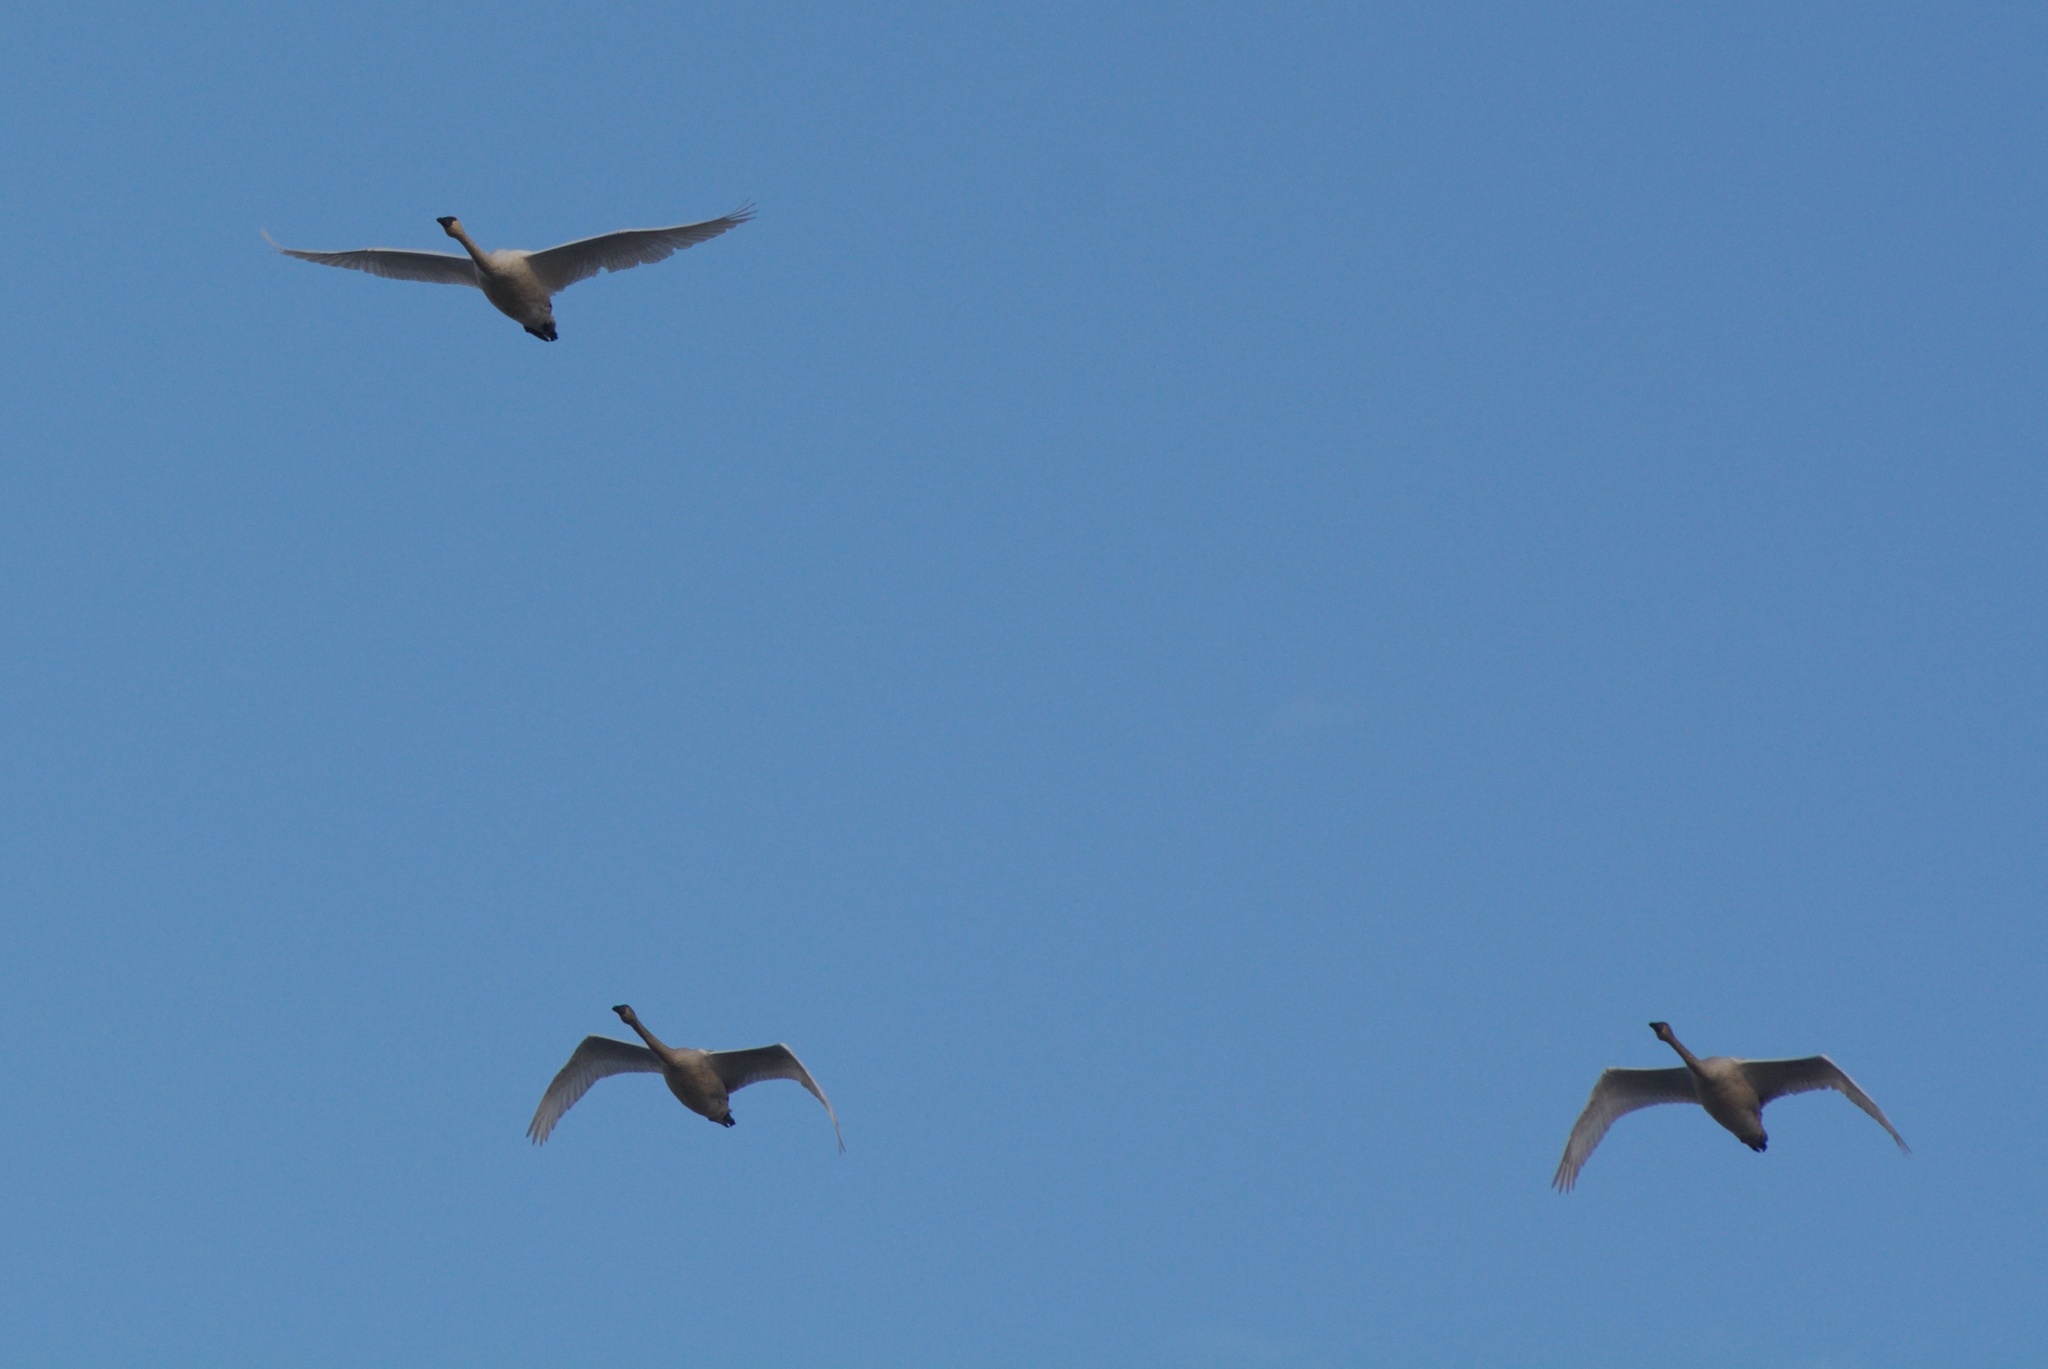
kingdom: Animalia
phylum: Chordata
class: Aves
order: Anseriformes
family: Anatidae
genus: Cygnus
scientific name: Cygnus columbianus
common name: Tundra swan
